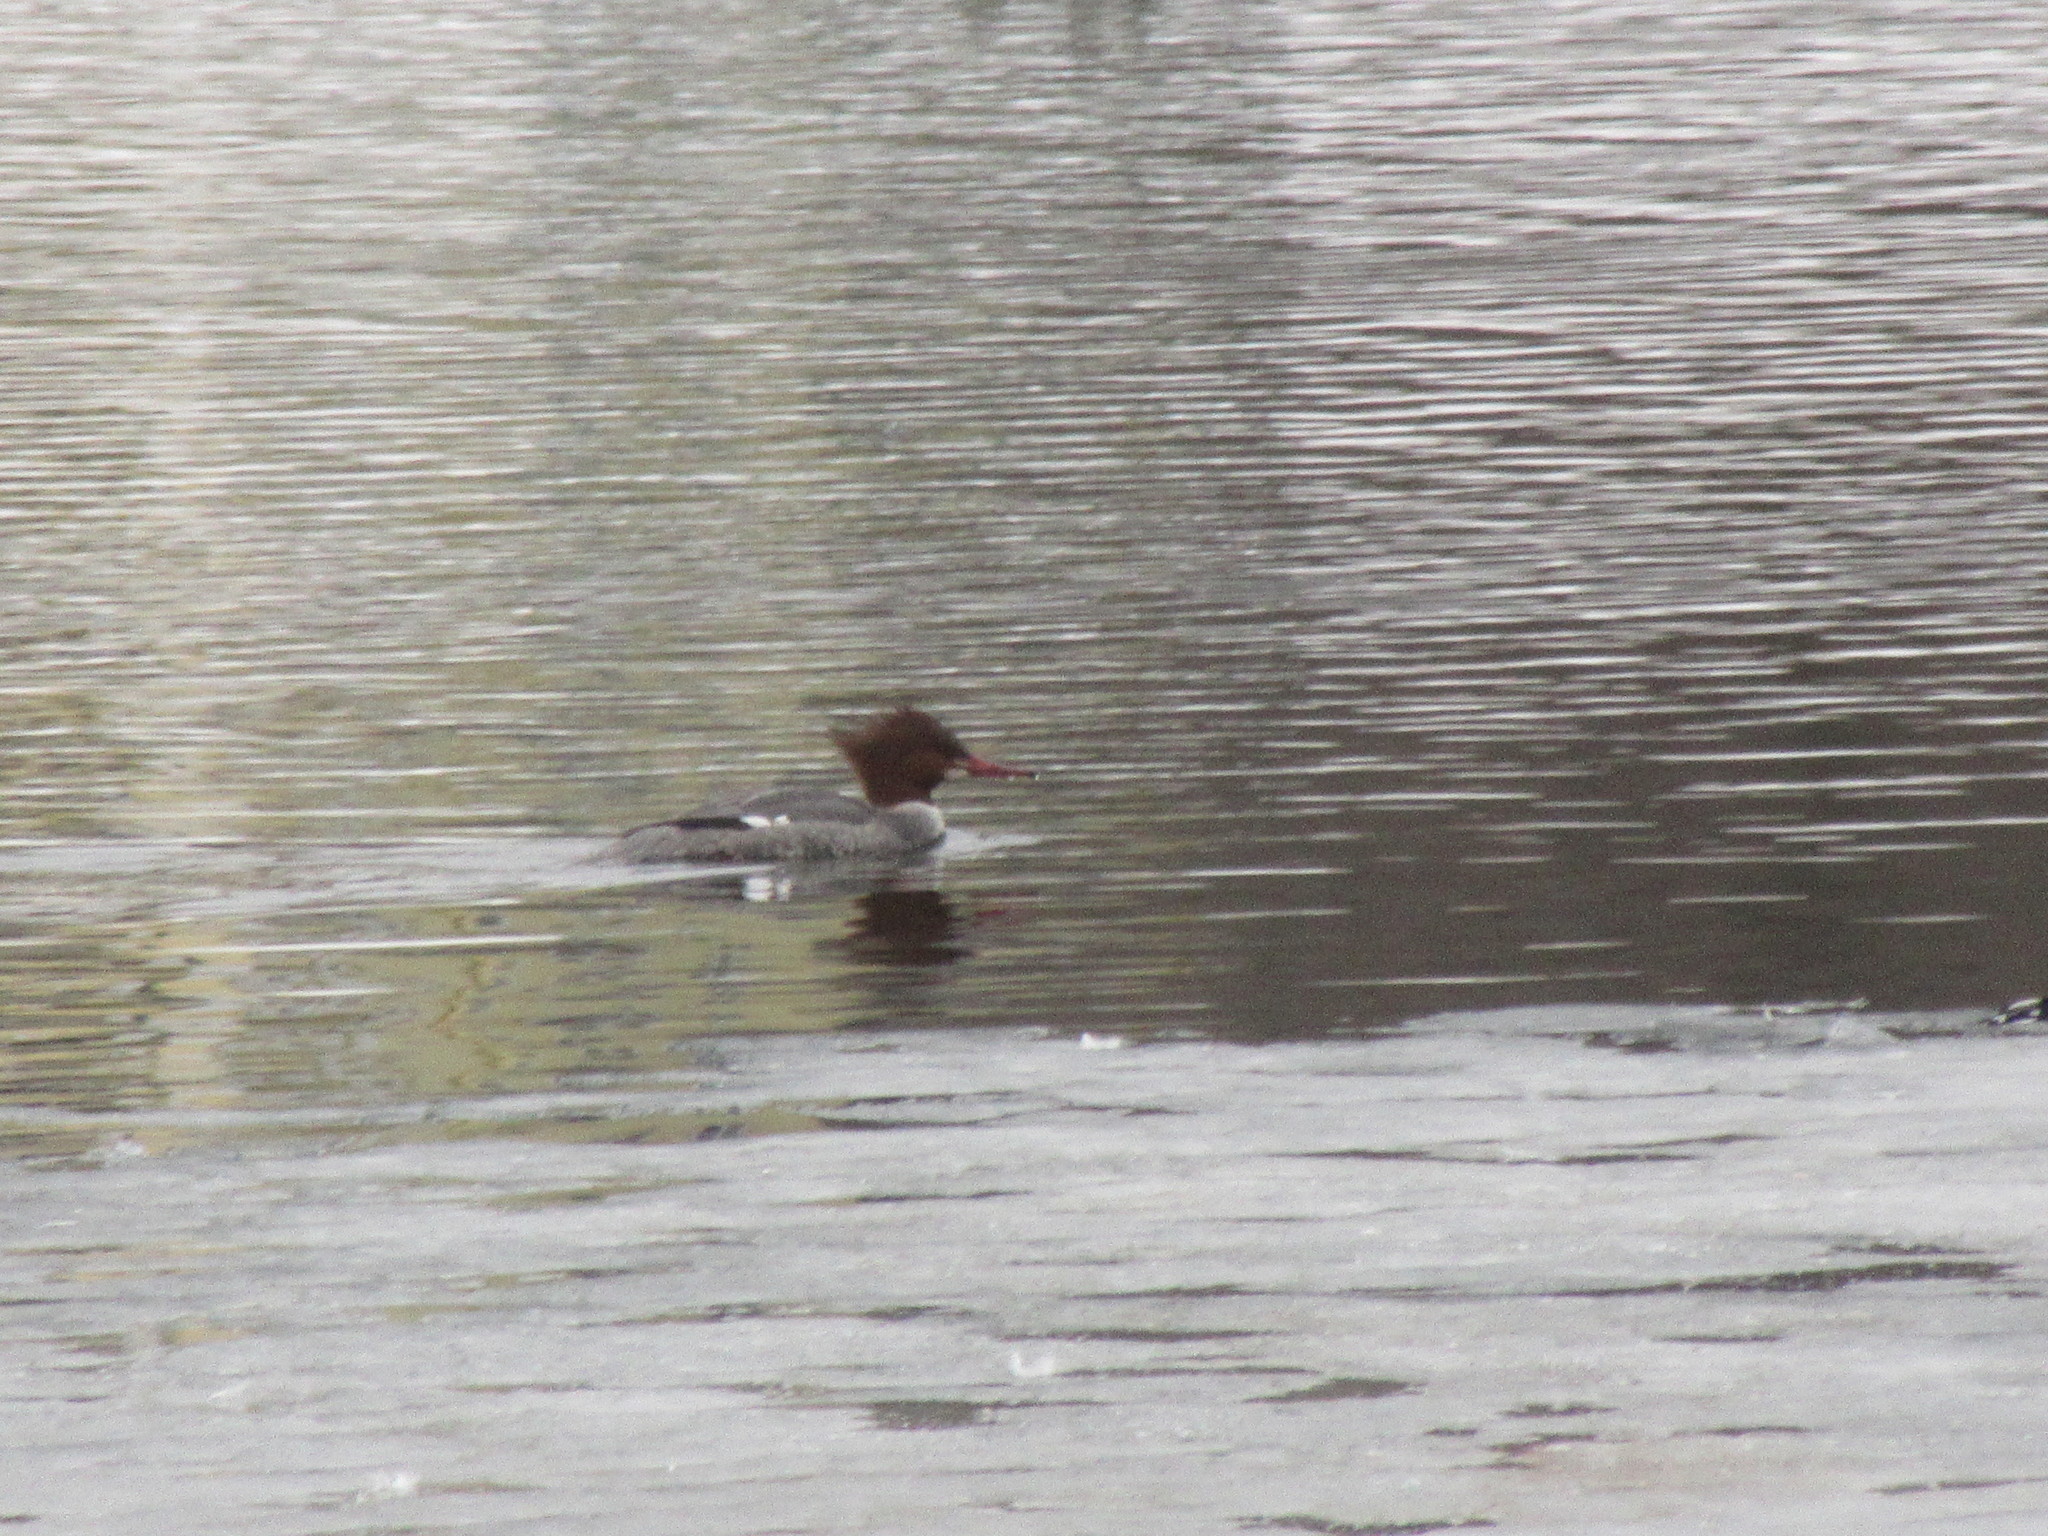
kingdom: Animalia
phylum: Chordata
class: Aves
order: Anseriformes
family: Anatidae
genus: Mergus
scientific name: Mergus merganser
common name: Common merganser
